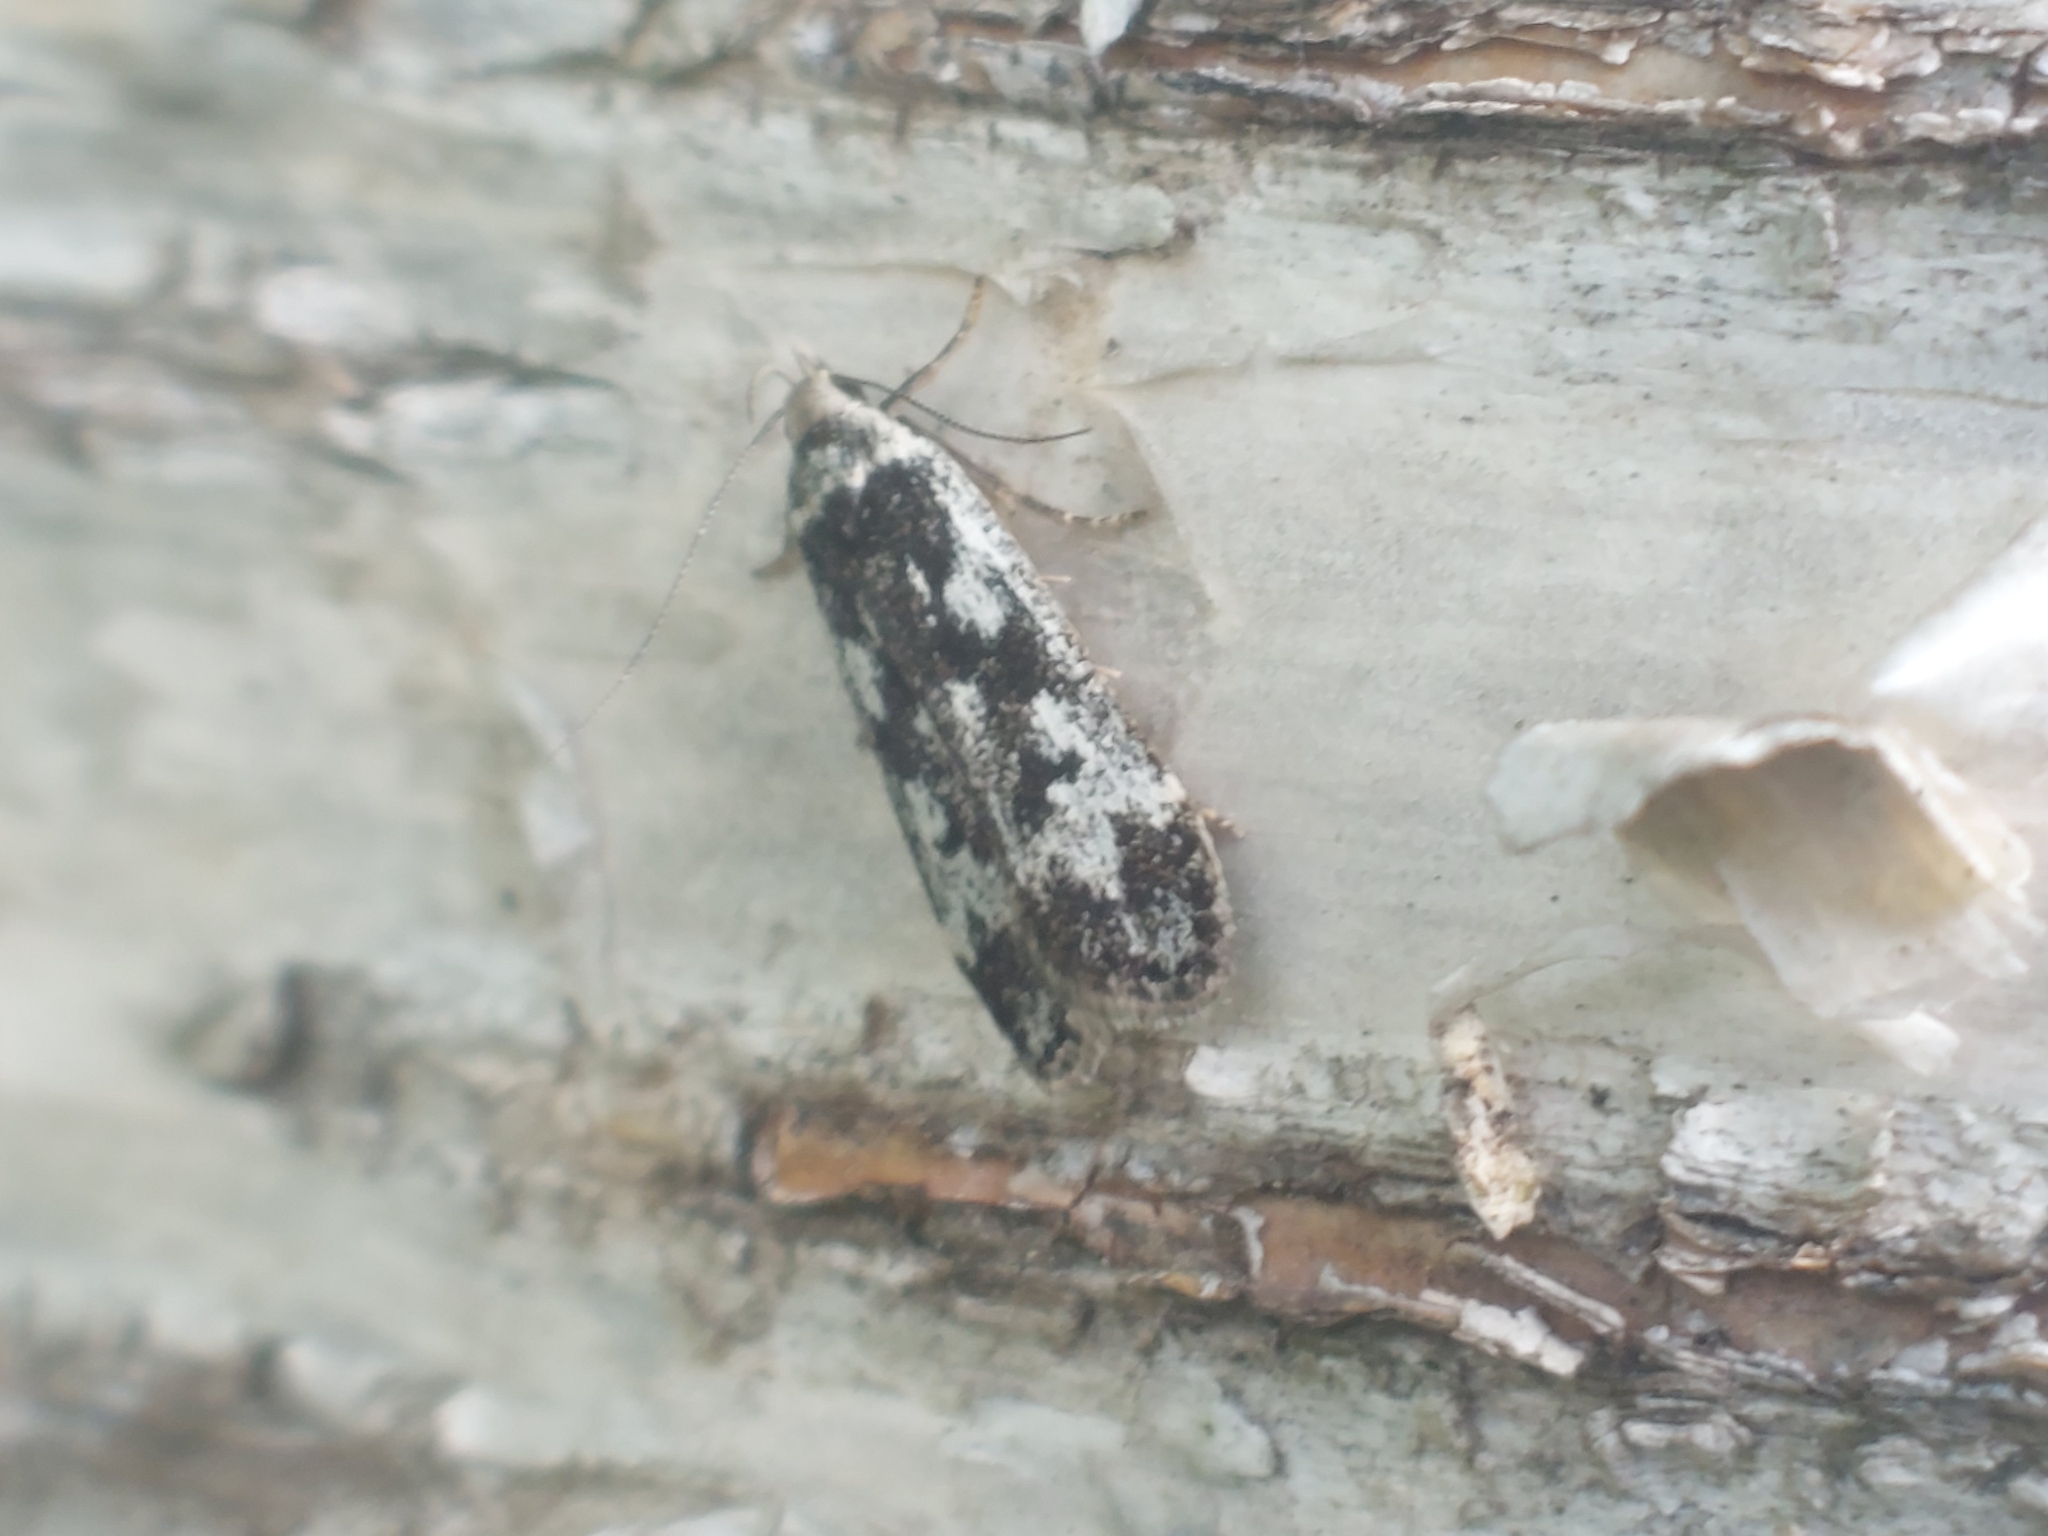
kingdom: Animalia
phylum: Arthropoda
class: Insecta
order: Lepidoptera
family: Gelechiidae
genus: Anacampsis
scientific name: Anacampsis blattariella
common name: Birch sober
